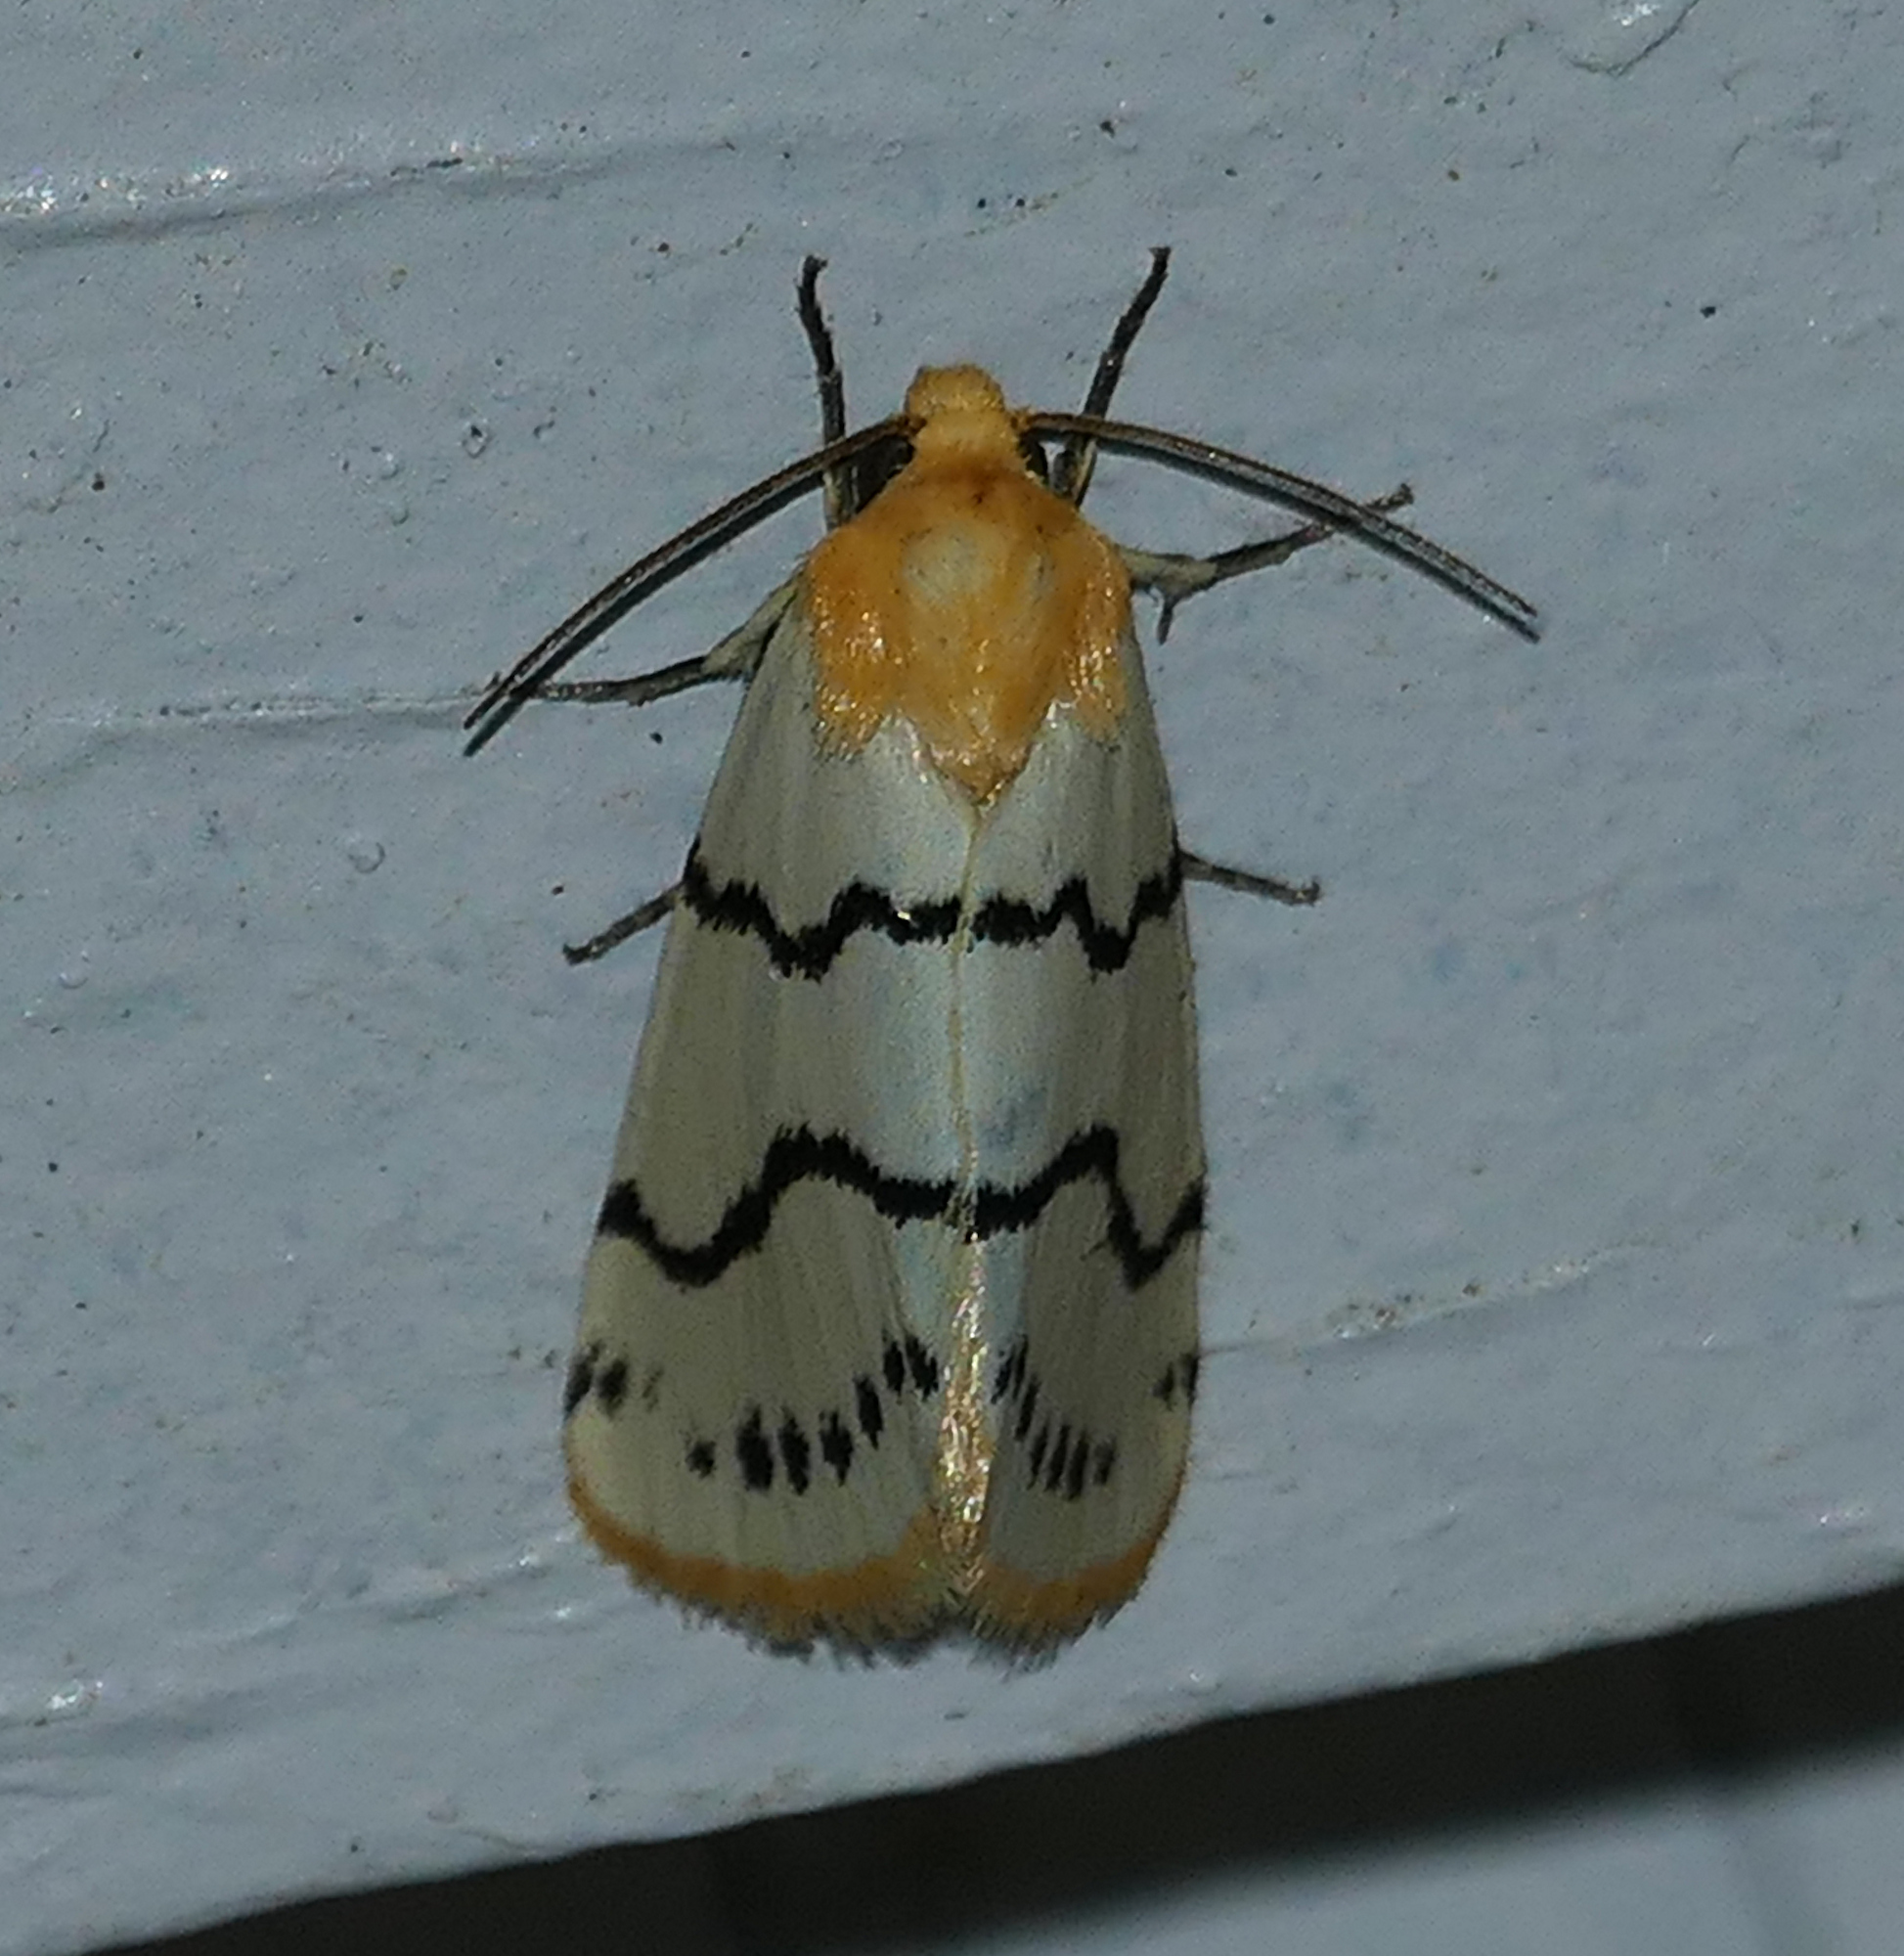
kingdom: Animalia
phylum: Arthropoda
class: Insecta
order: Lepidoptera
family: Noctuidae
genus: Lineostriastiria
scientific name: Lineostriastiria sexseriata
